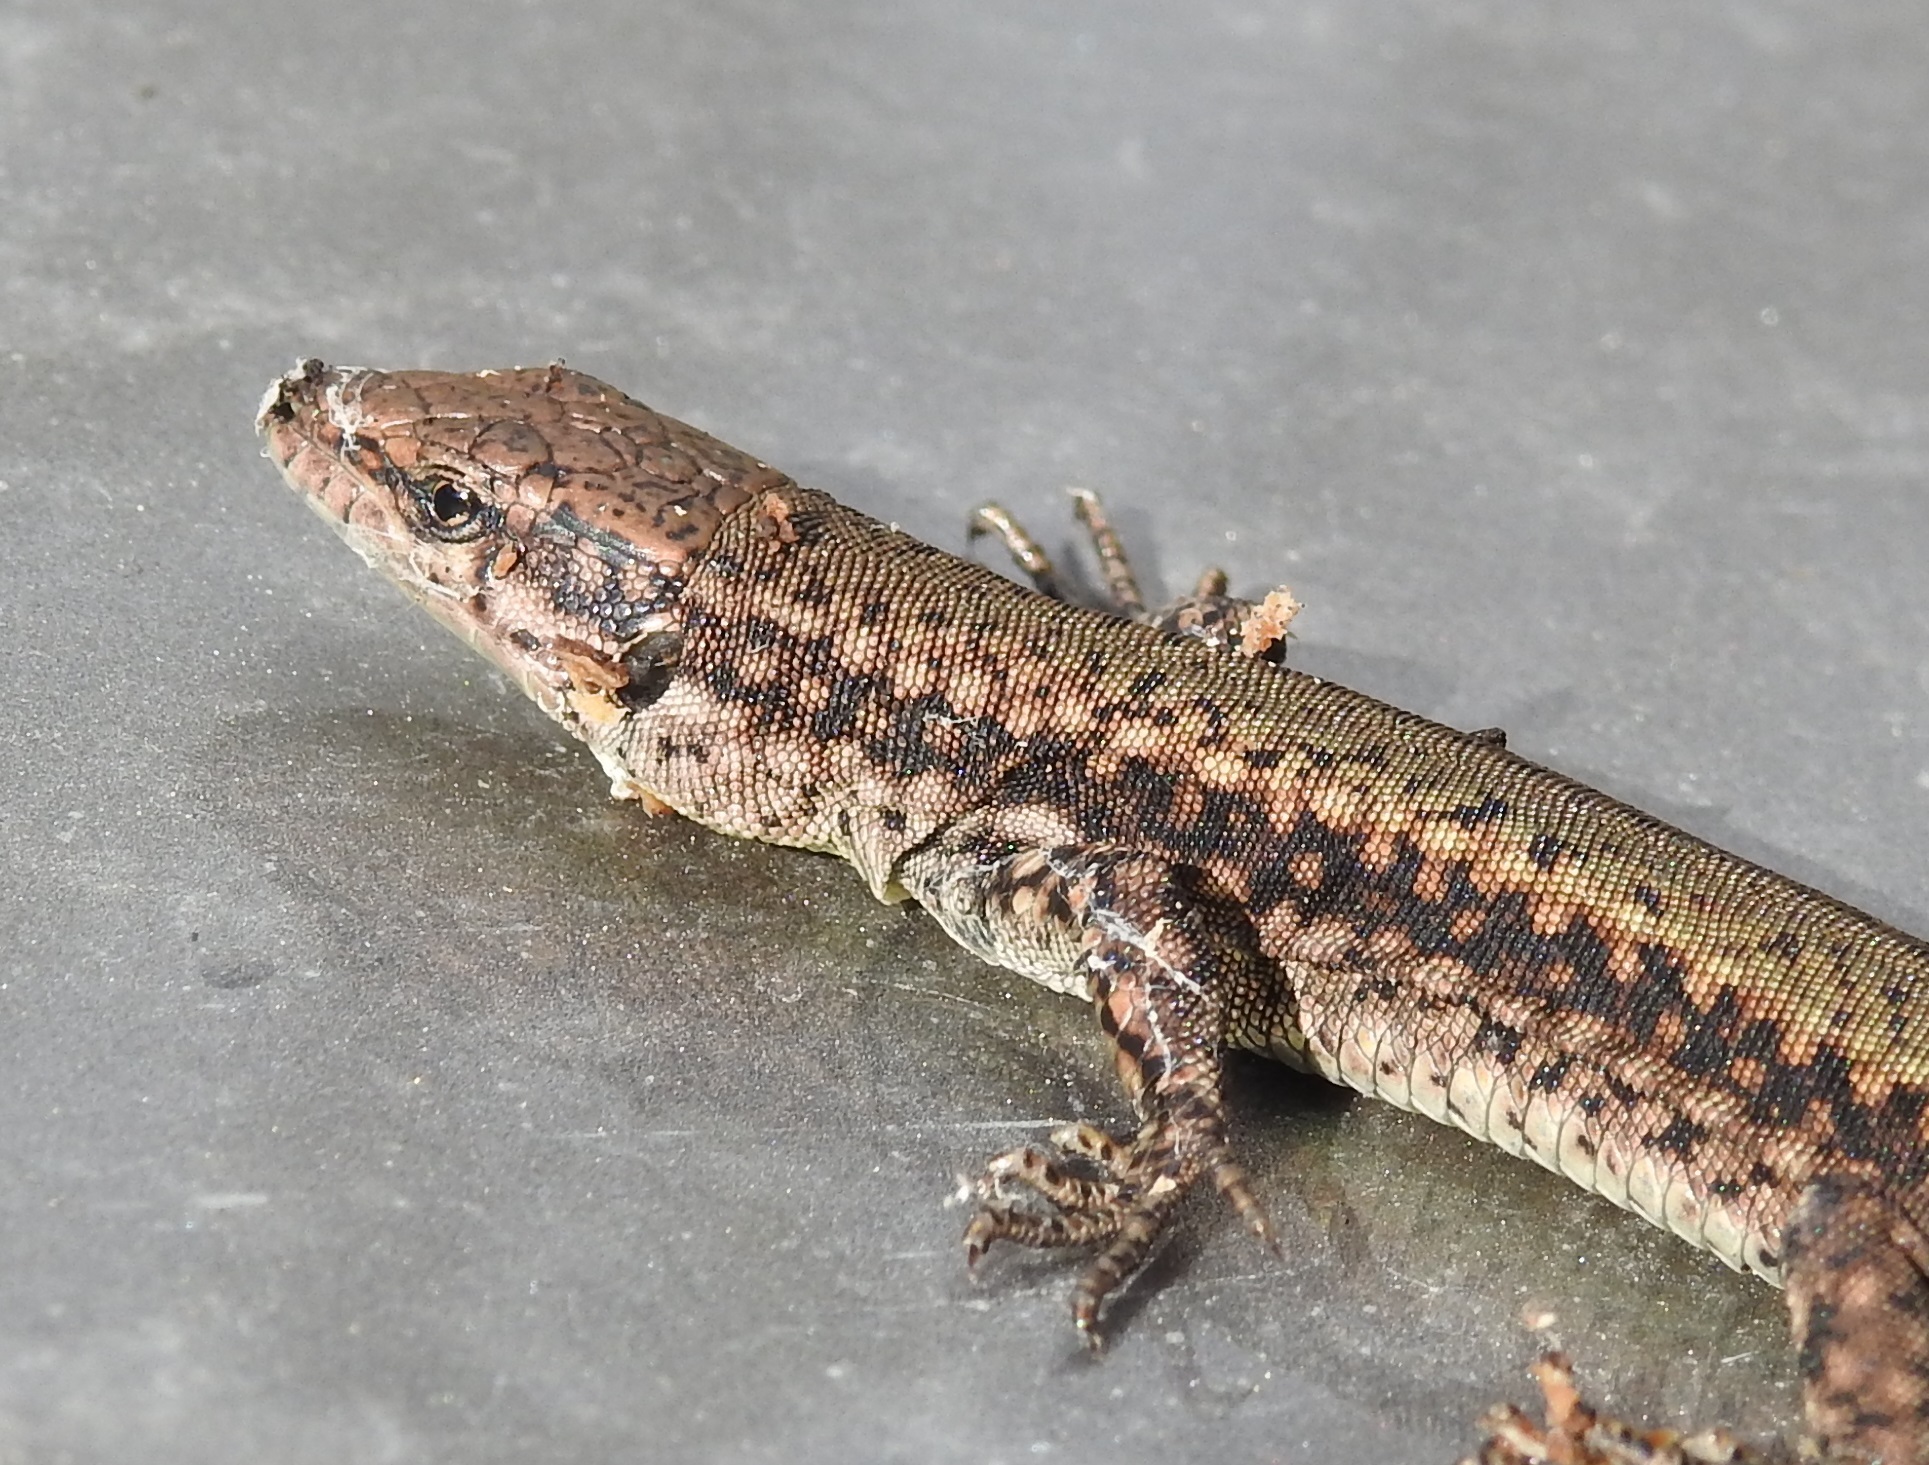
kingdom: Animalia
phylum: Chordata
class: Squamata
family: Lacertidae
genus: Podarcis
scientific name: Podarcis vaucheri
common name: Vaucher's wall lizard
